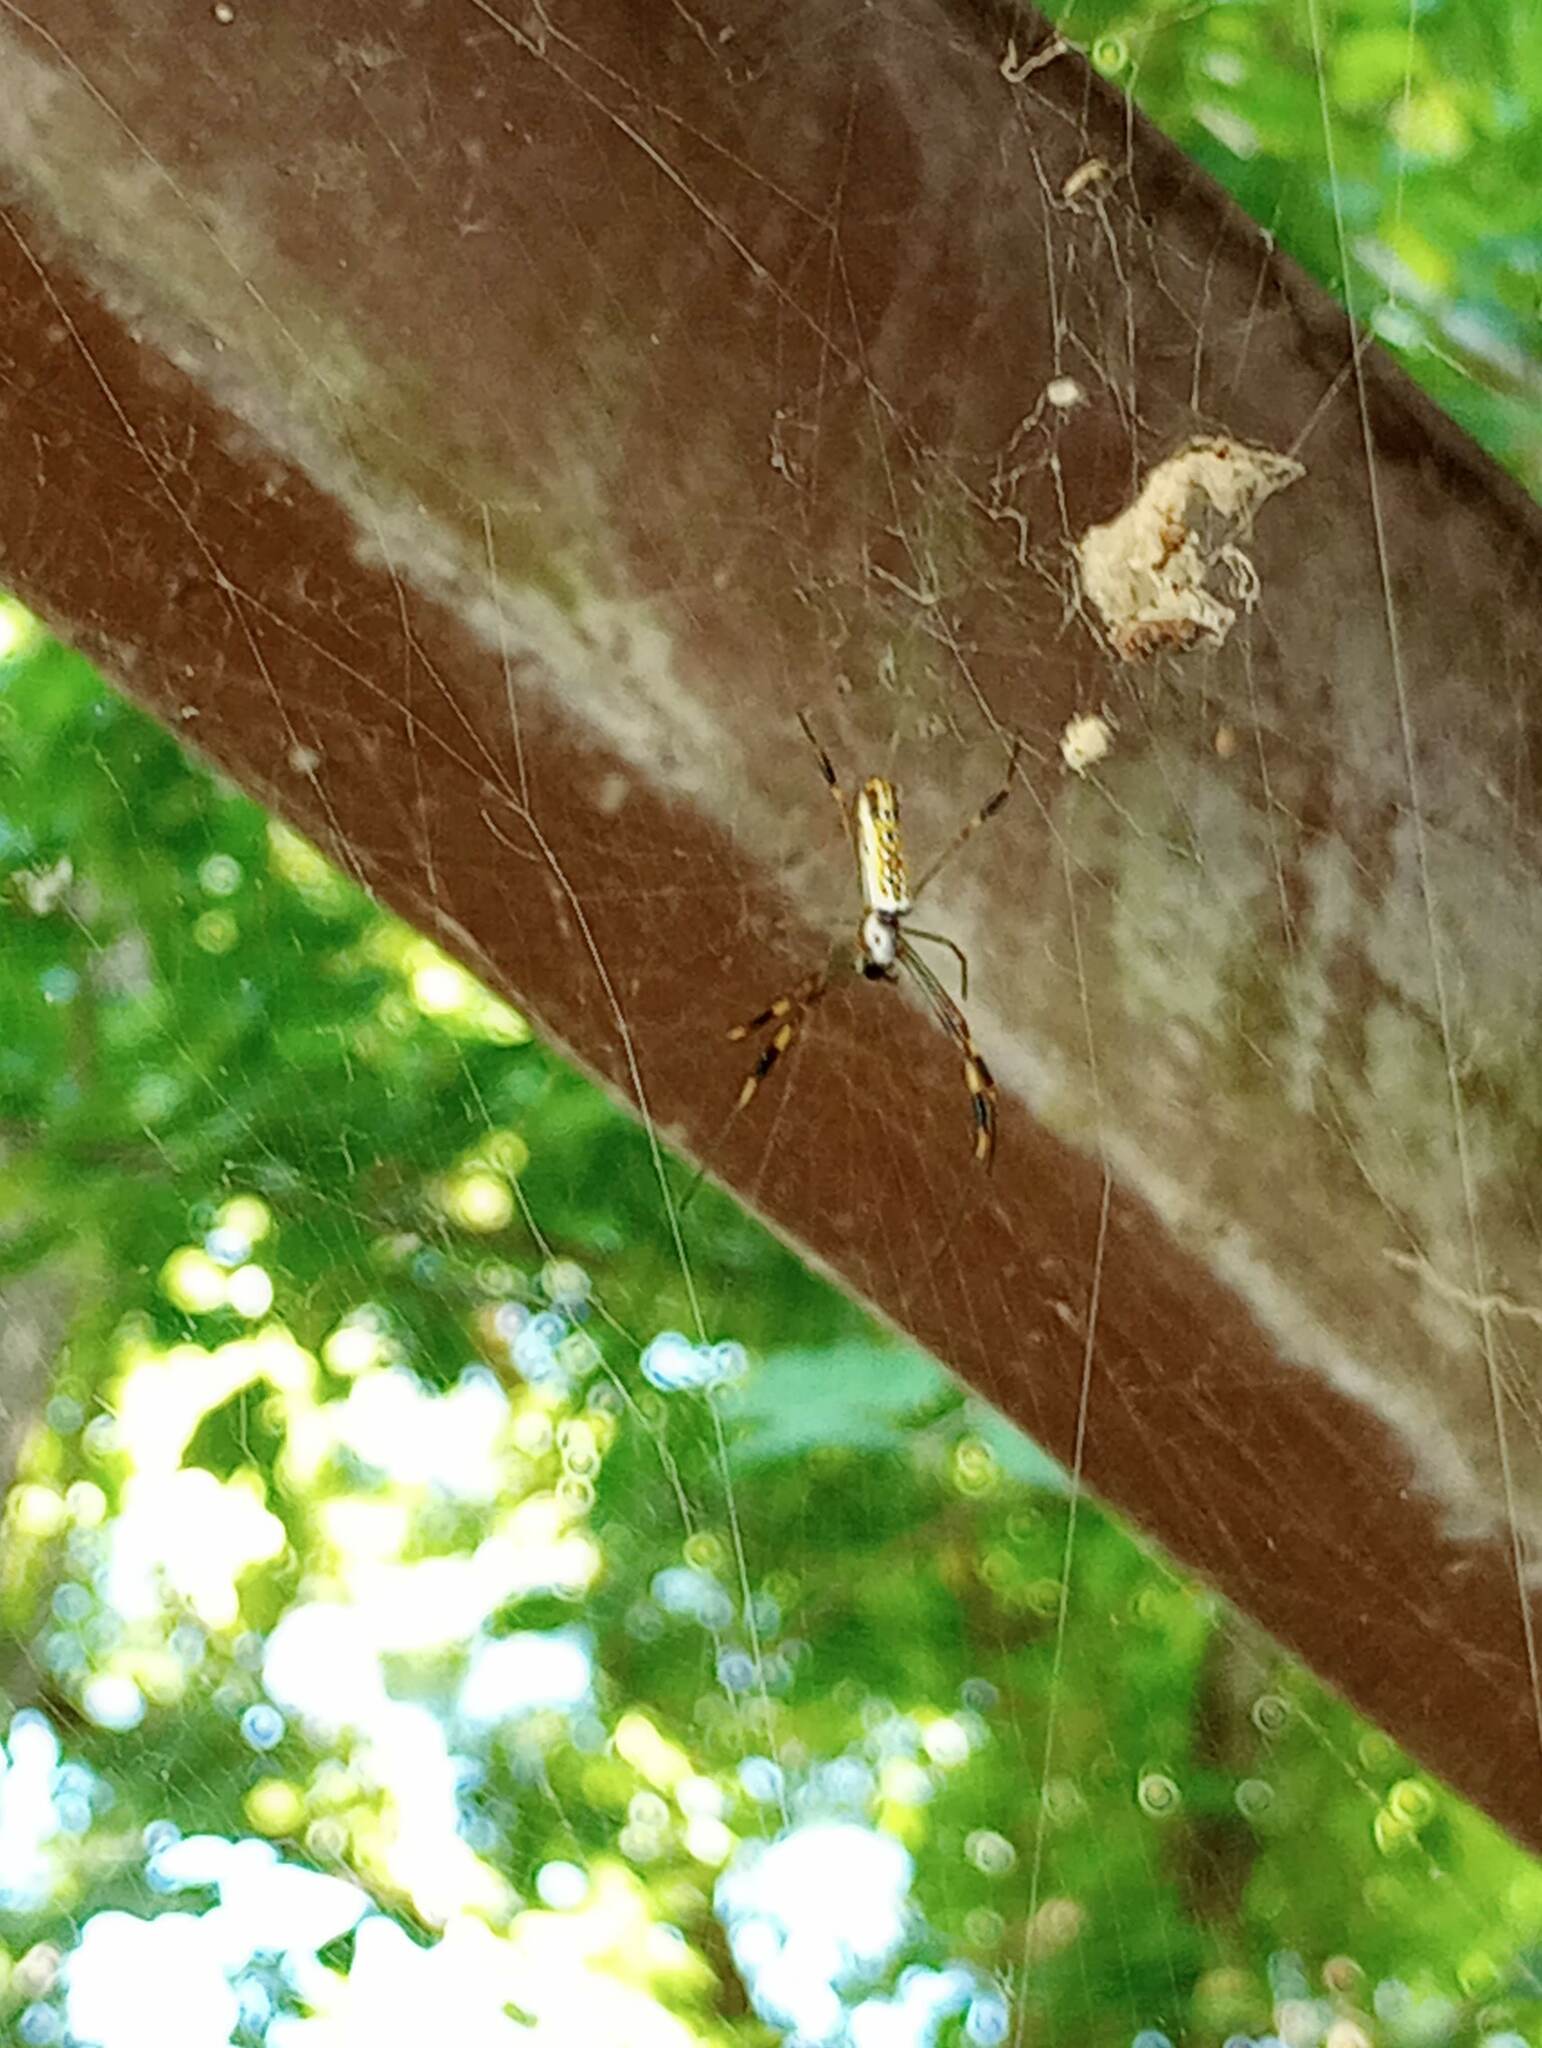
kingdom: Animalia
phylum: Arthropoda
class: Arachnida
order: Araneae
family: Araneidae
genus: Trichonephila
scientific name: Trichonephila clavipes
